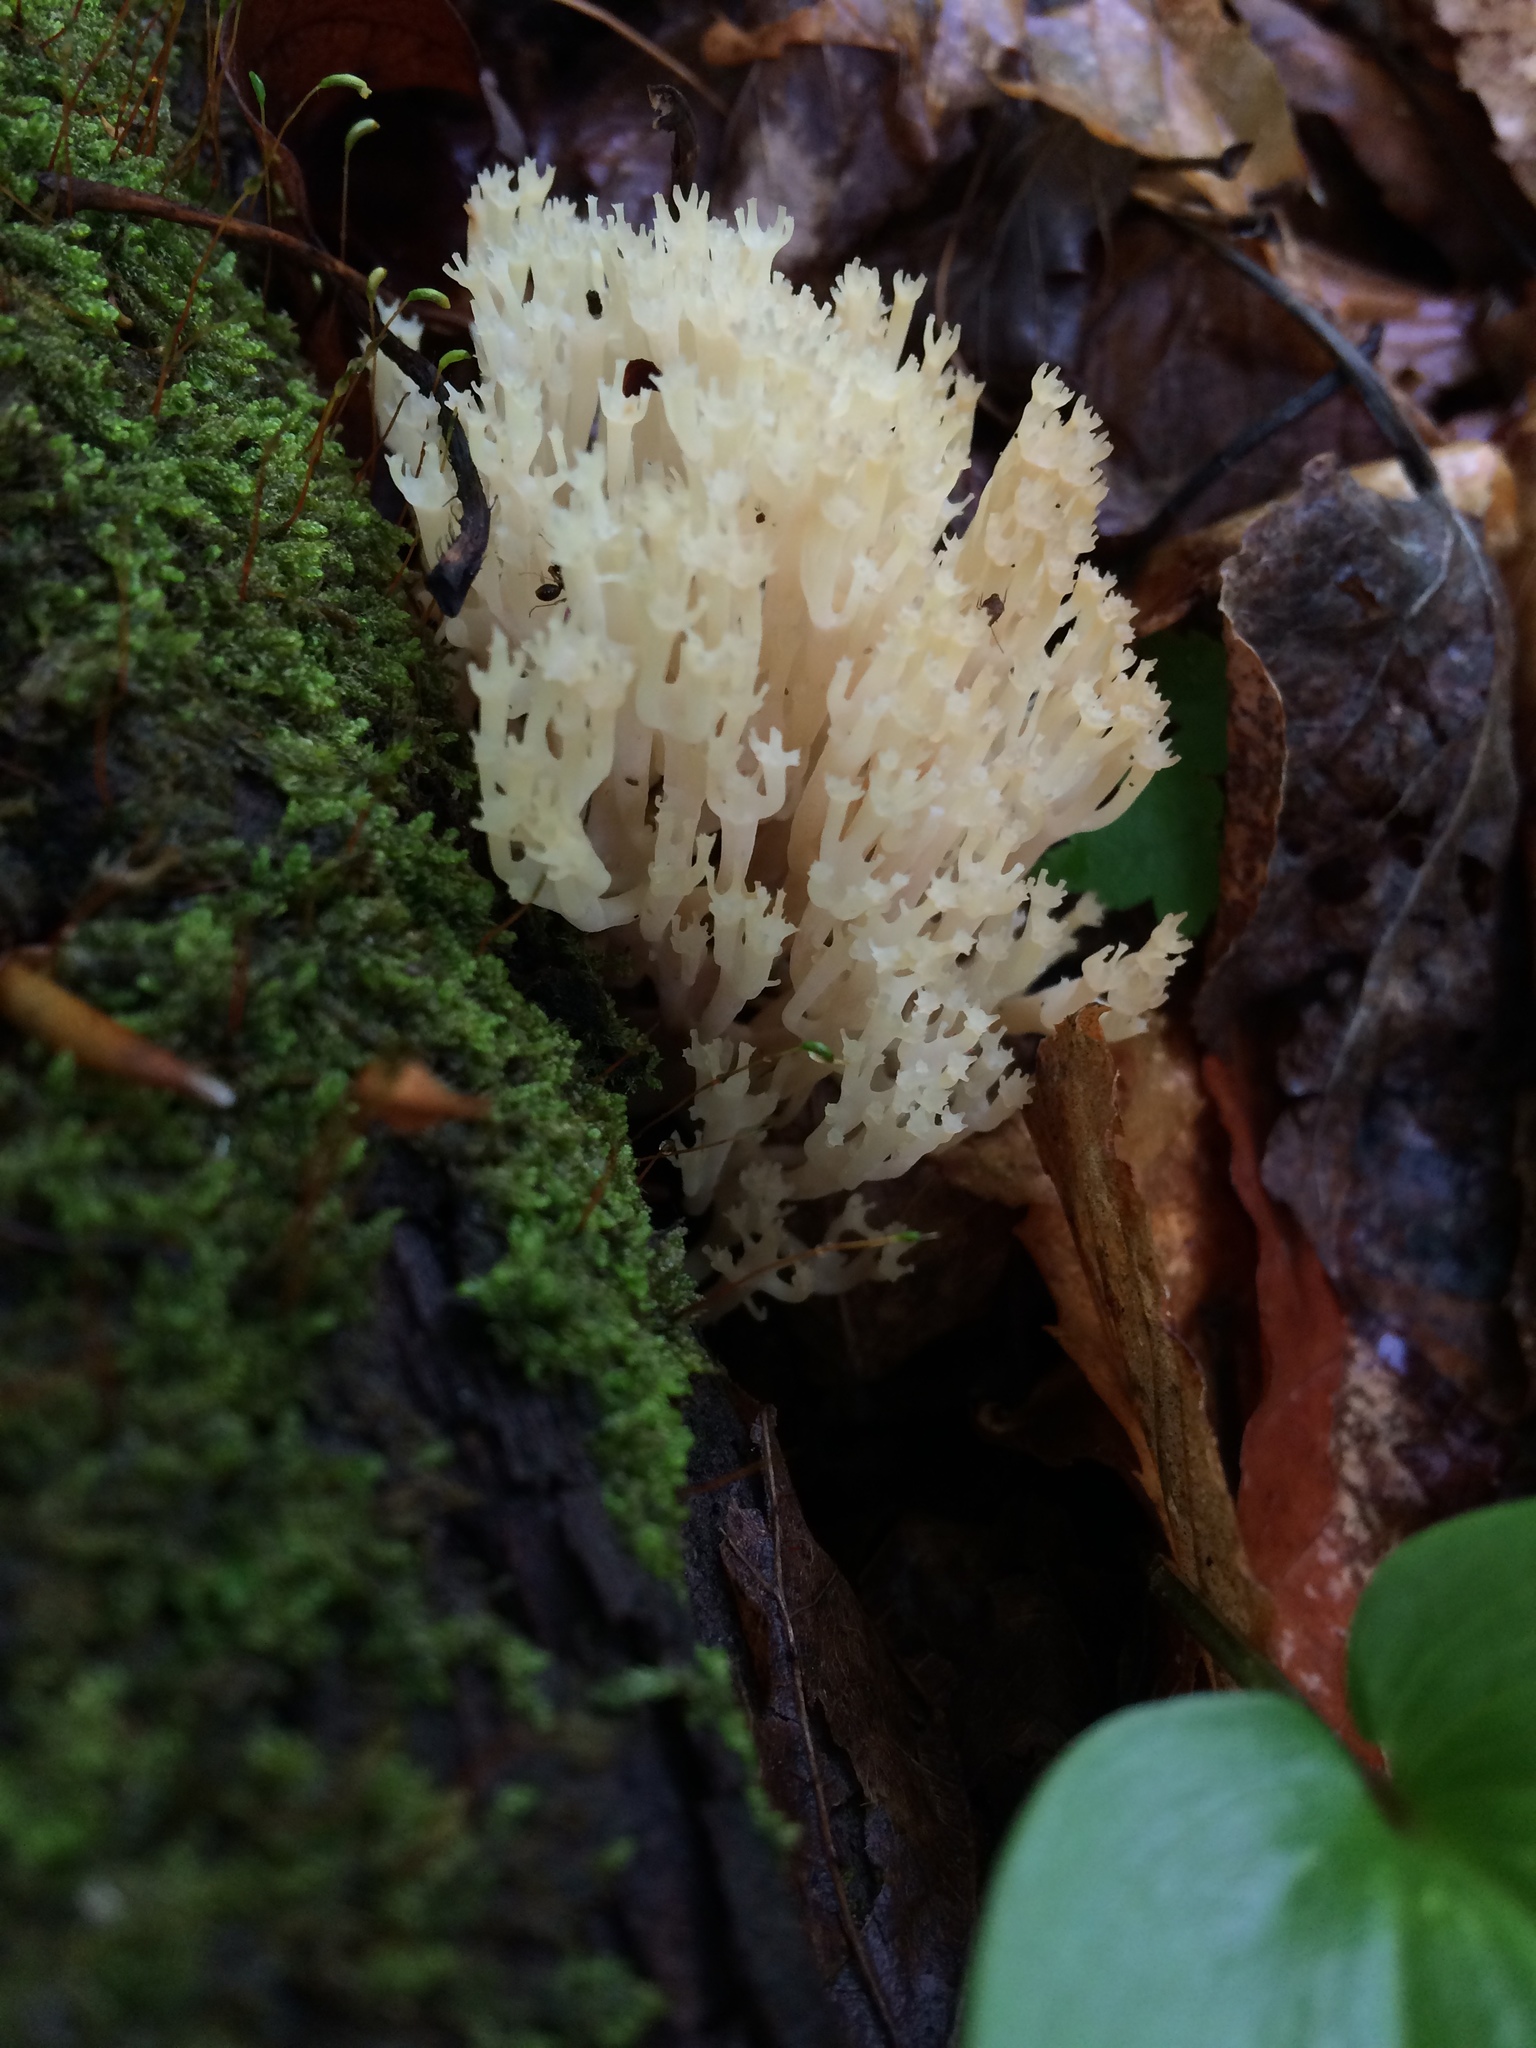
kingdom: Fungi
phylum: Basidiomycota
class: Agaricomycetes
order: Russulales
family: Auriscalpiaceae
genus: Artomyces
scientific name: Artomyces pyxidatus
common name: Crown-tipped coral fungus
